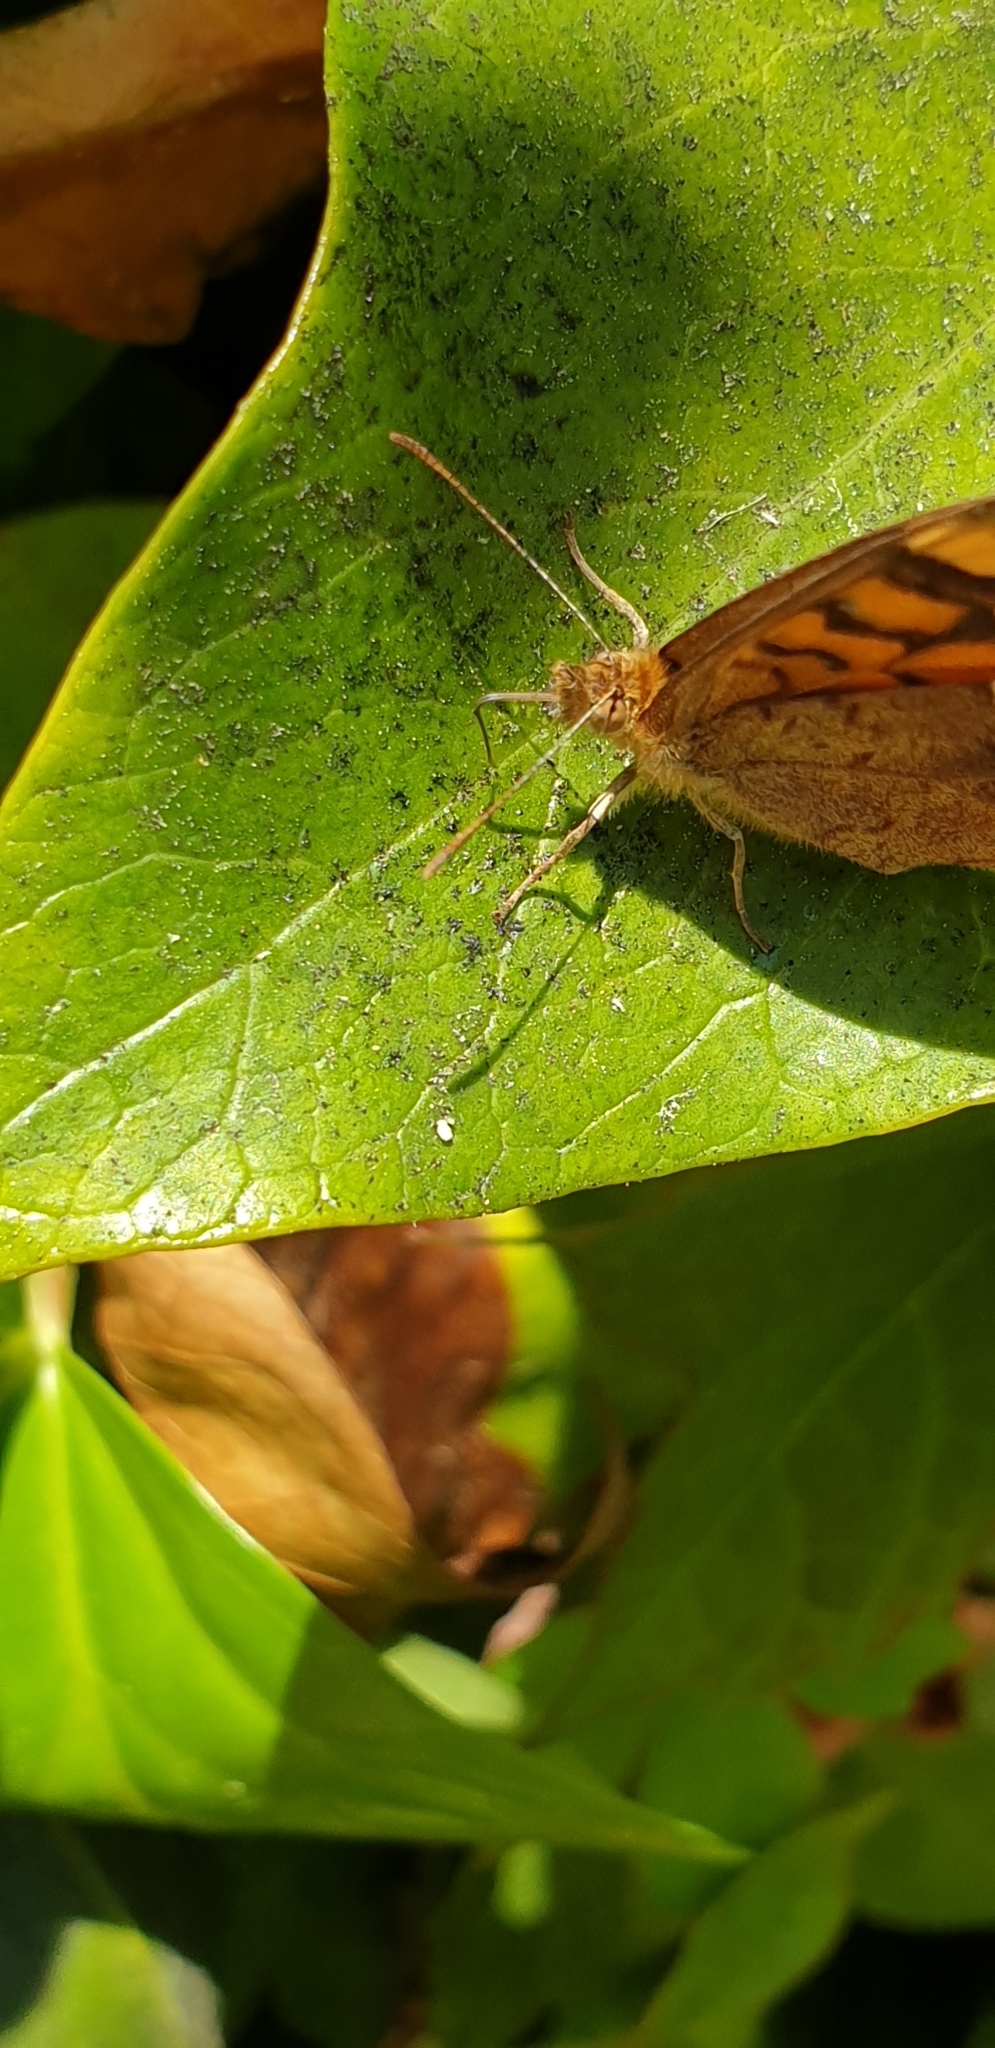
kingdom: Animalia
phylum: Arthropoda
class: Insecta
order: Lepidoptera
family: Nymphalidae
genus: Pararge
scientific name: Pararge aegeria
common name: Speckled wood
